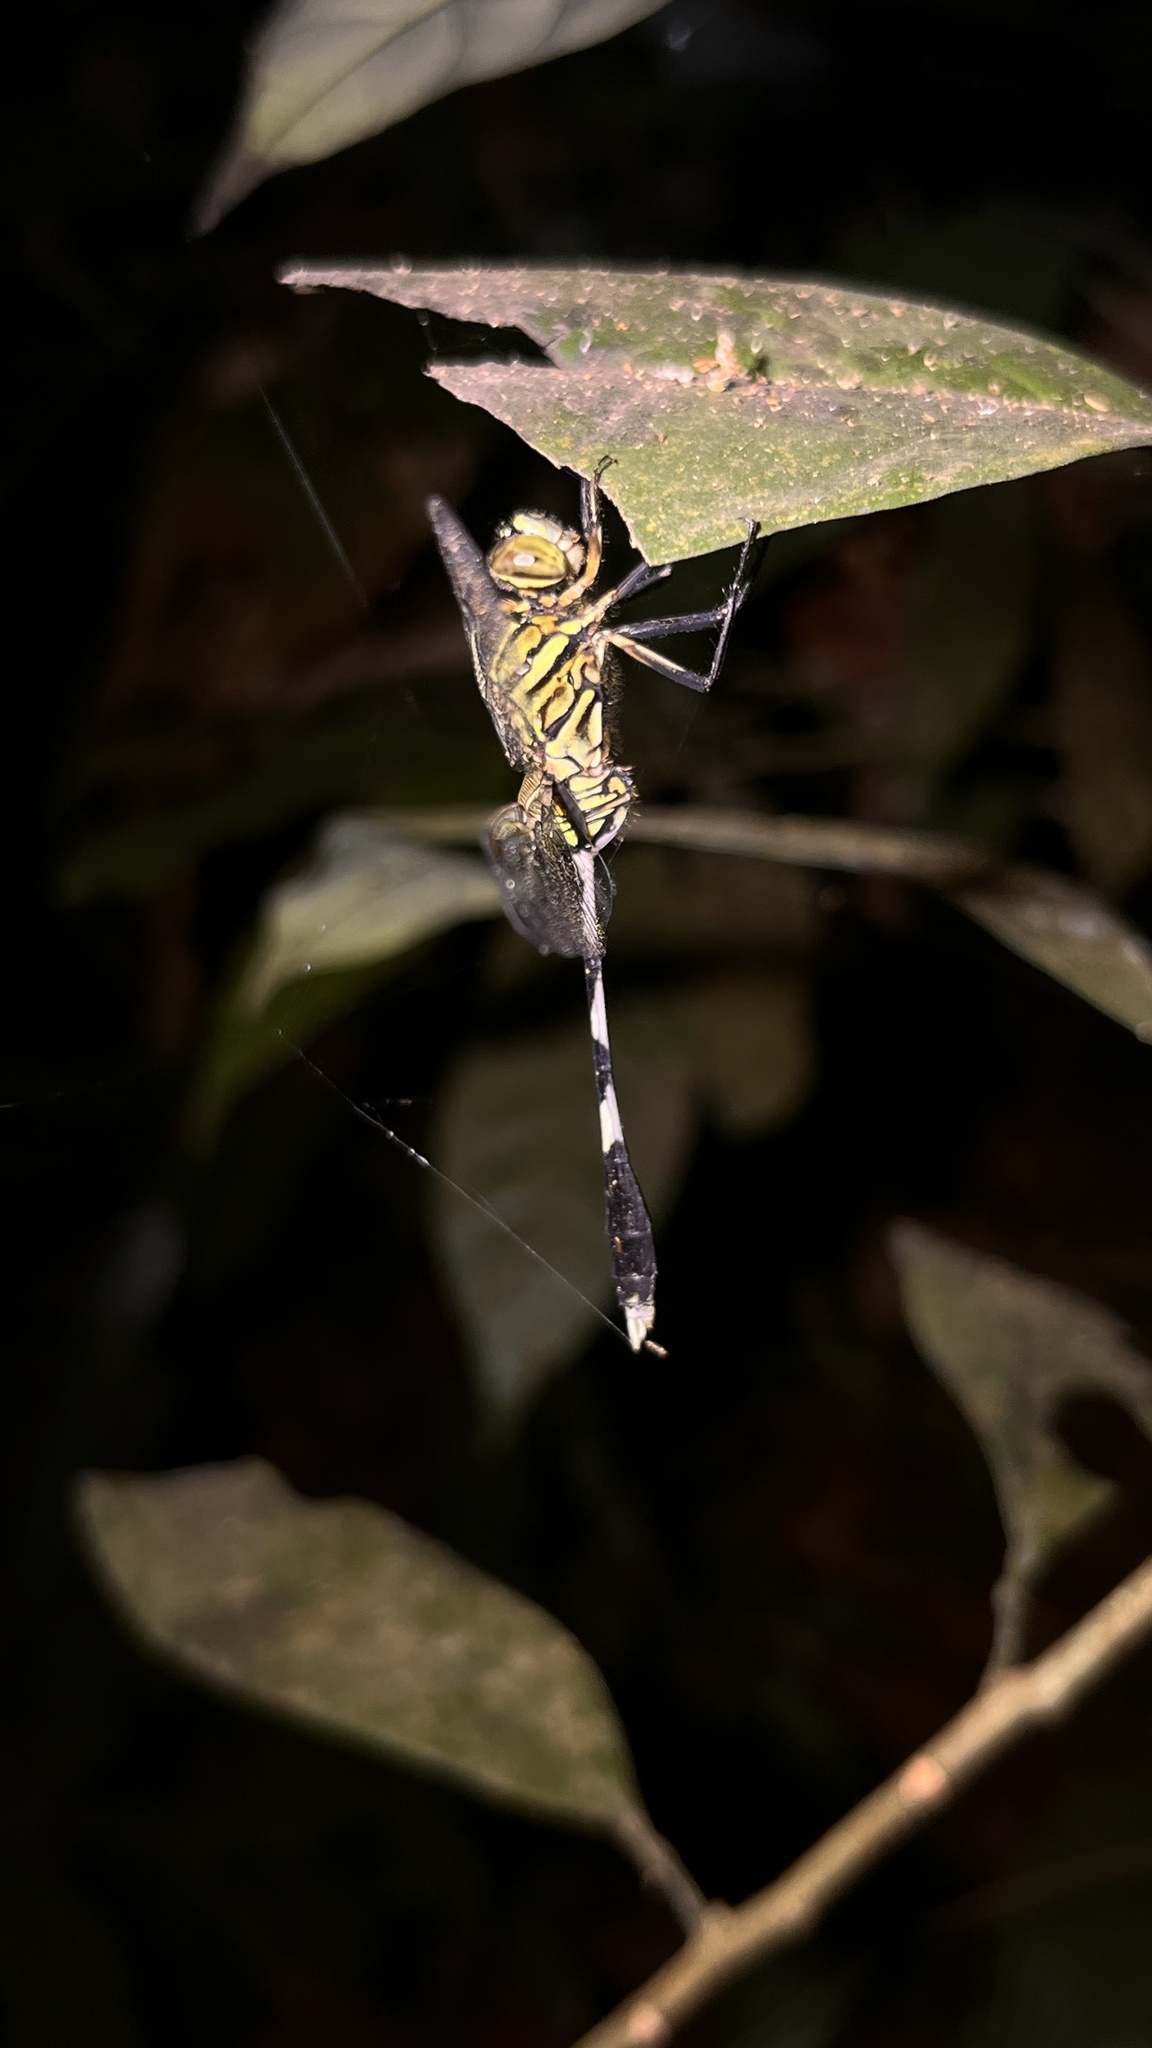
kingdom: Animalia
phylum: Arthropoda
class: Insecta
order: Odonata
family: Libellulidae
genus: Orthetrum
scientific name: Orthetrum sabina
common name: Slender skimmer
